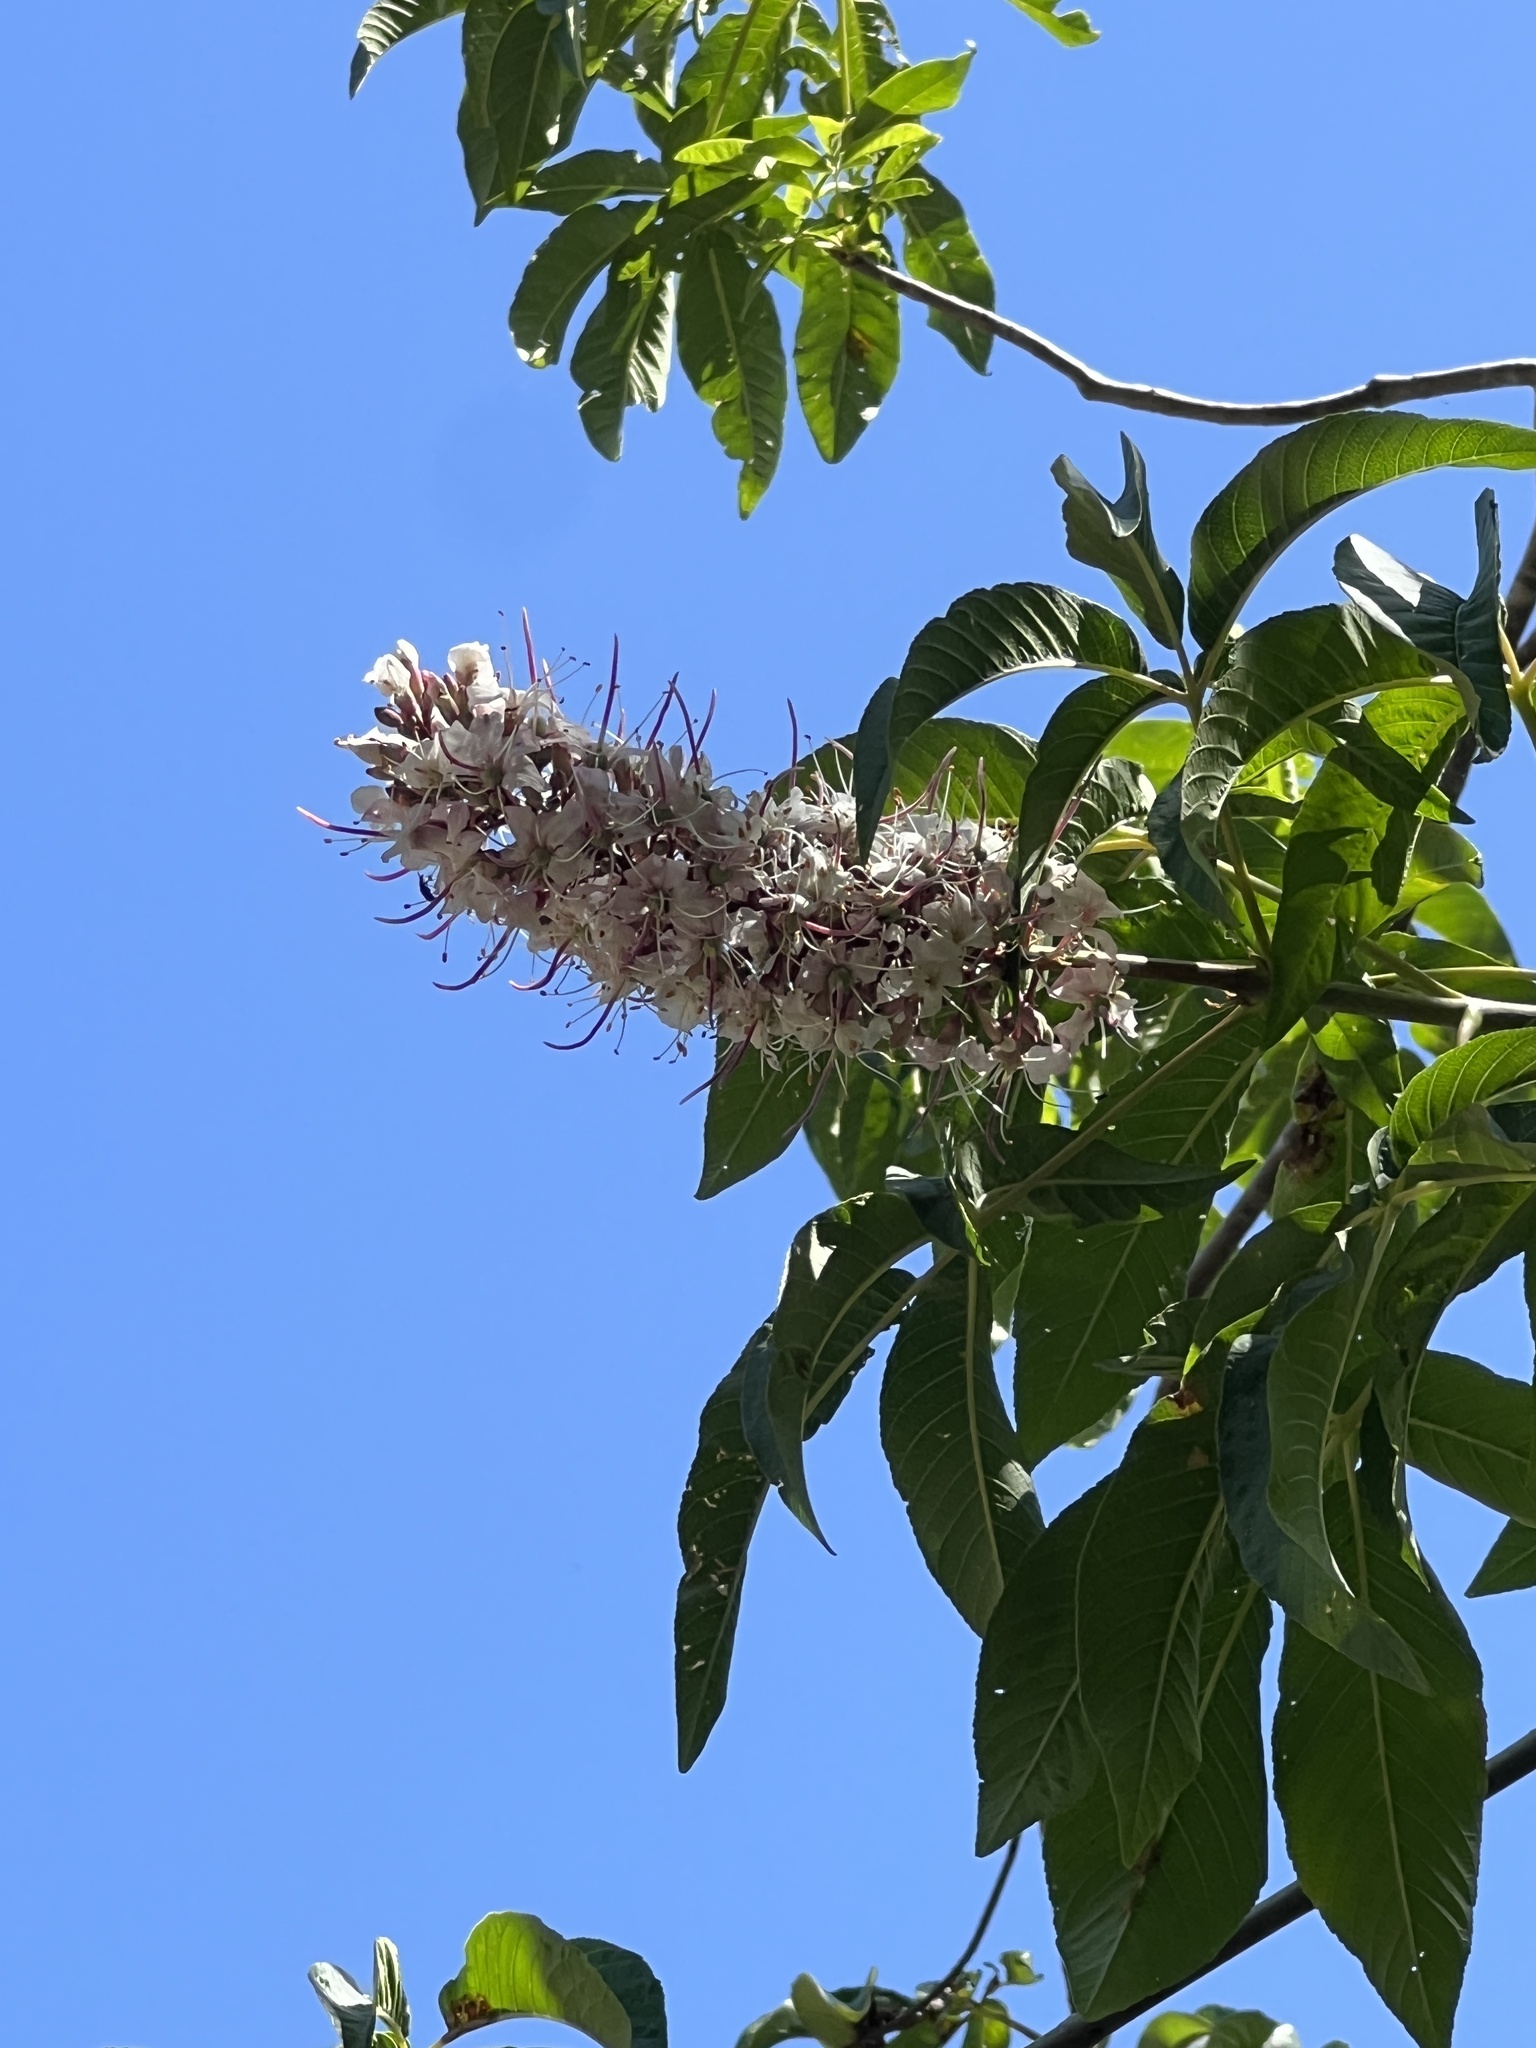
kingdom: Plantae
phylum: Tracheophyta
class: Magnoliopsida
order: Sapindales
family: Sapindaceae
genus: Aesculus
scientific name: Aesculus californica
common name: California buckeye
